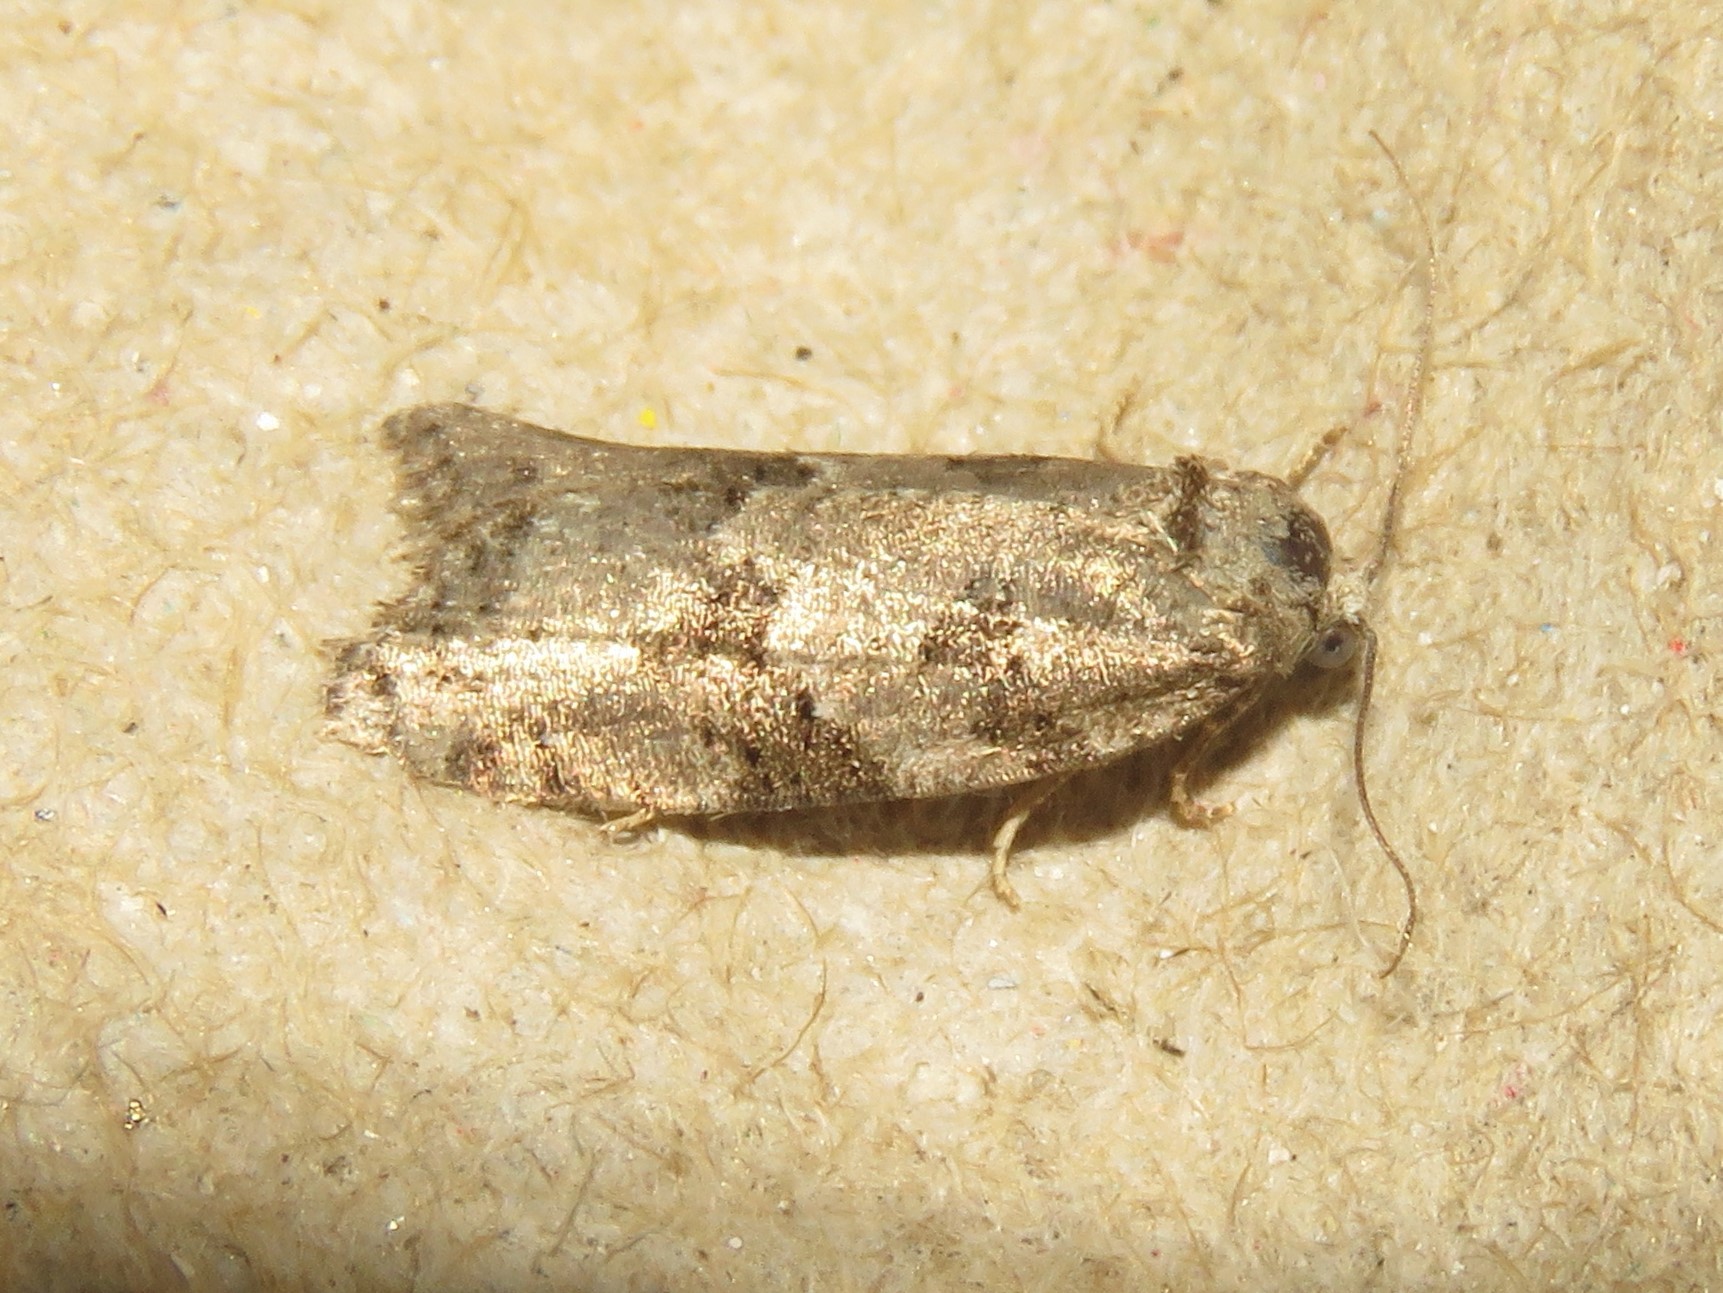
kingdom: Animalia
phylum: Arthropoda
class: Insecta
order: Lepidoptera
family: Tortricidae
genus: Cnephasia
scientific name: Cnephasia stephensiana
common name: Grey tortrix
